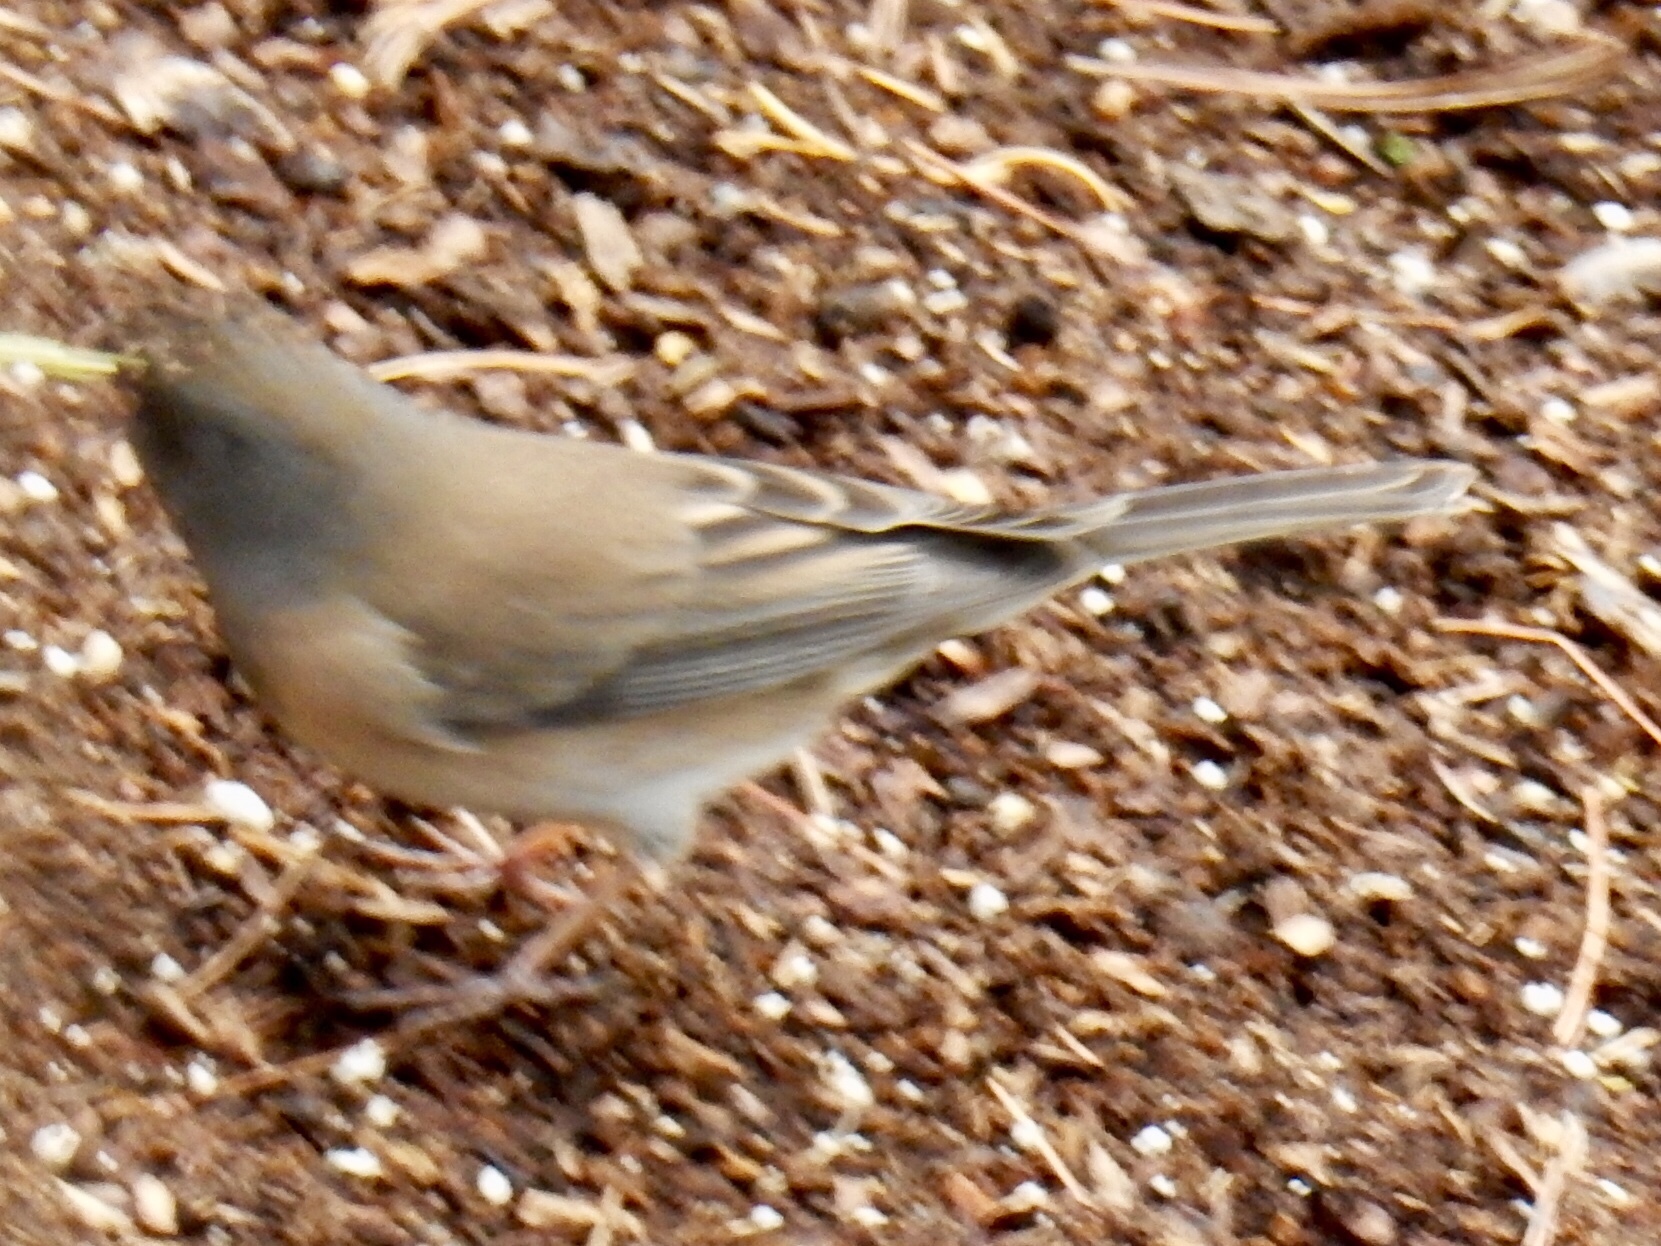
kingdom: Animalia
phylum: Chordata
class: Aves
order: Passeriformes
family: Passerellidae
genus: Junco
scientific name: Junco hyemalis
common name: Dark-eyed junco
